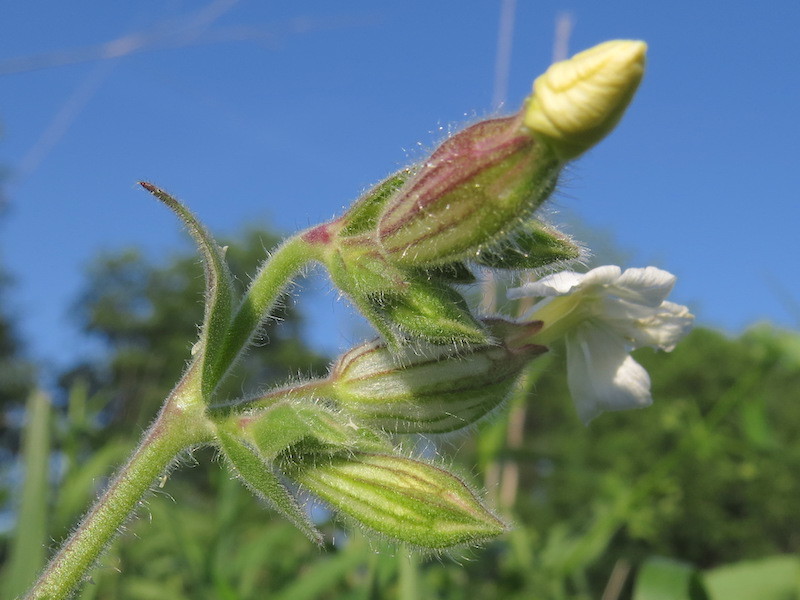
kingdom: Plantae
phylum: Tracheophyta
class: Magnoliopsida
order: Caryophyllales
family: Caryophyllaceae
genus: Silene
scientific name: Silene latifolia
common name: White campion
